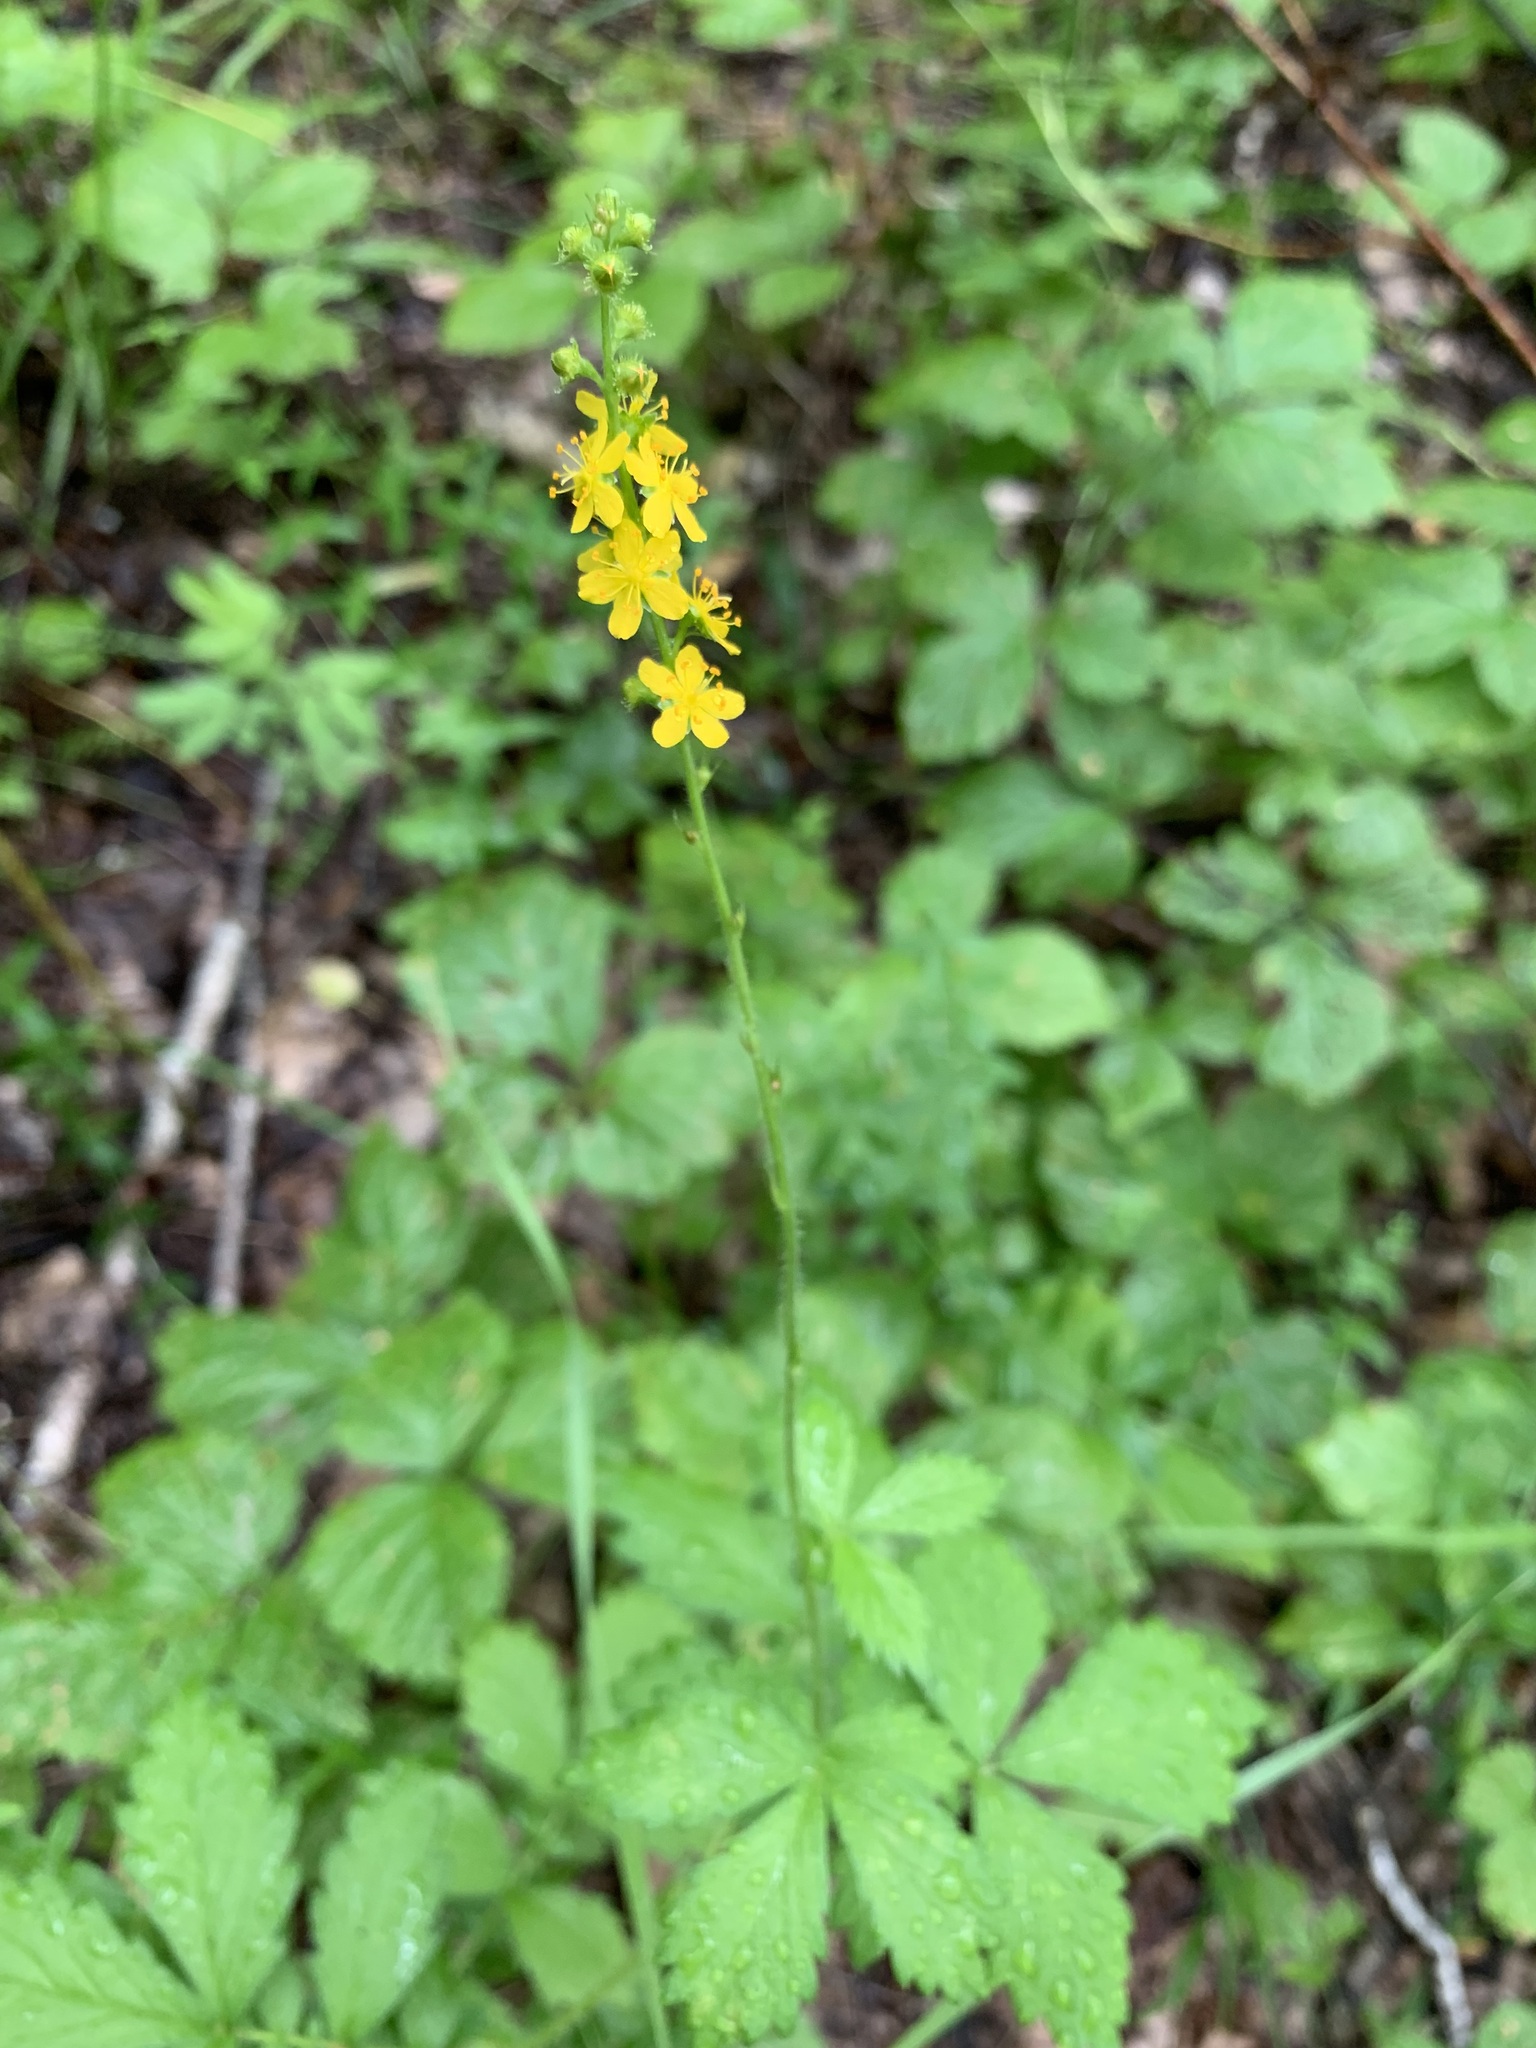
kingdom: Plantae
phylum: Tracheophyta
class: Magnoliopsida
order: Rosales
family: Rosaceae
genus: Agrimonia
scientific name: Agrimonia pilosa
